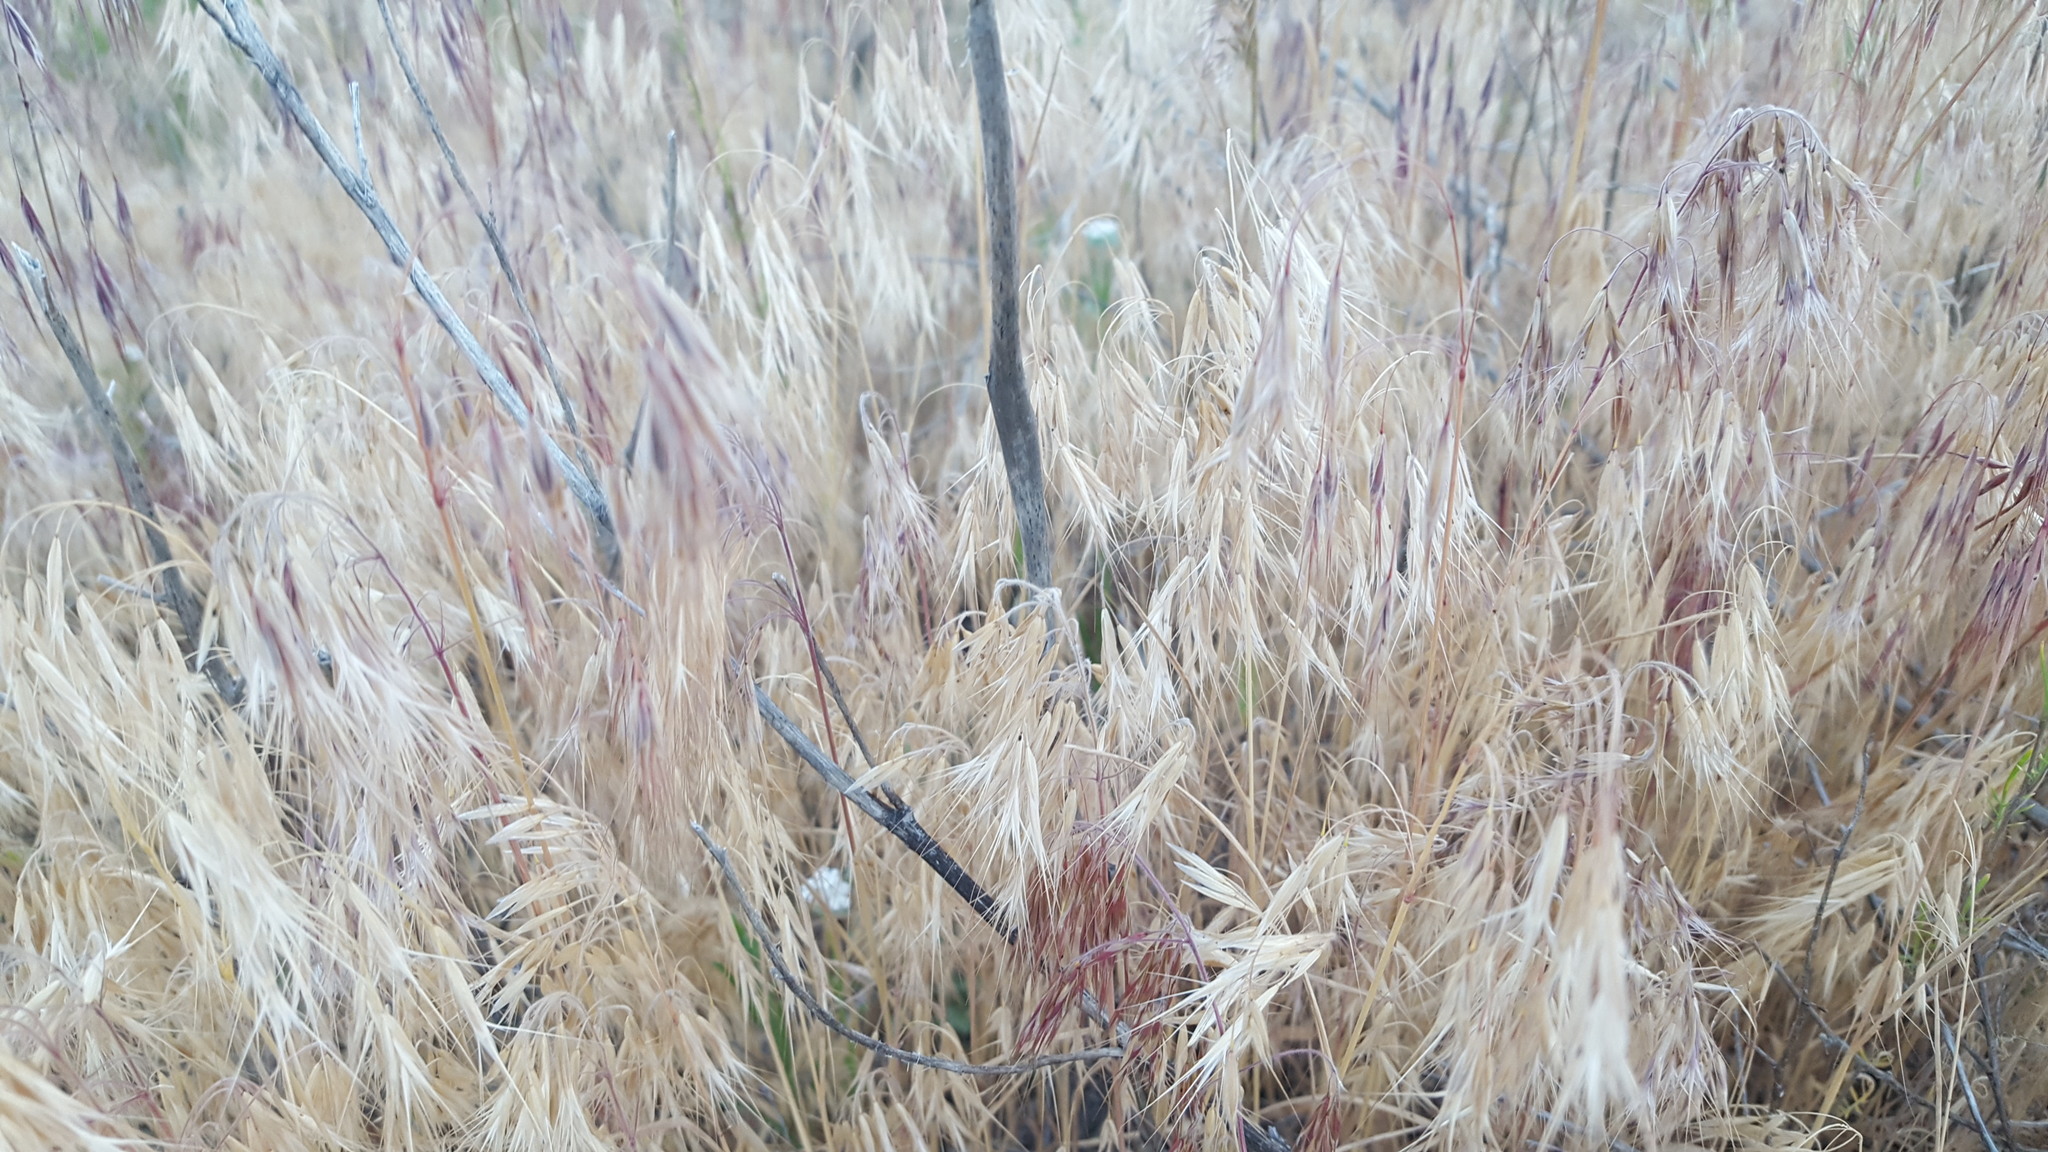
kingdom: Plantae
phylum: Tracheophyta
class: Liliopsida
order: Poales
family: Poaceae
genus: Bromus
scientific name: Bromus tectorum
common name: Cheatgrass
